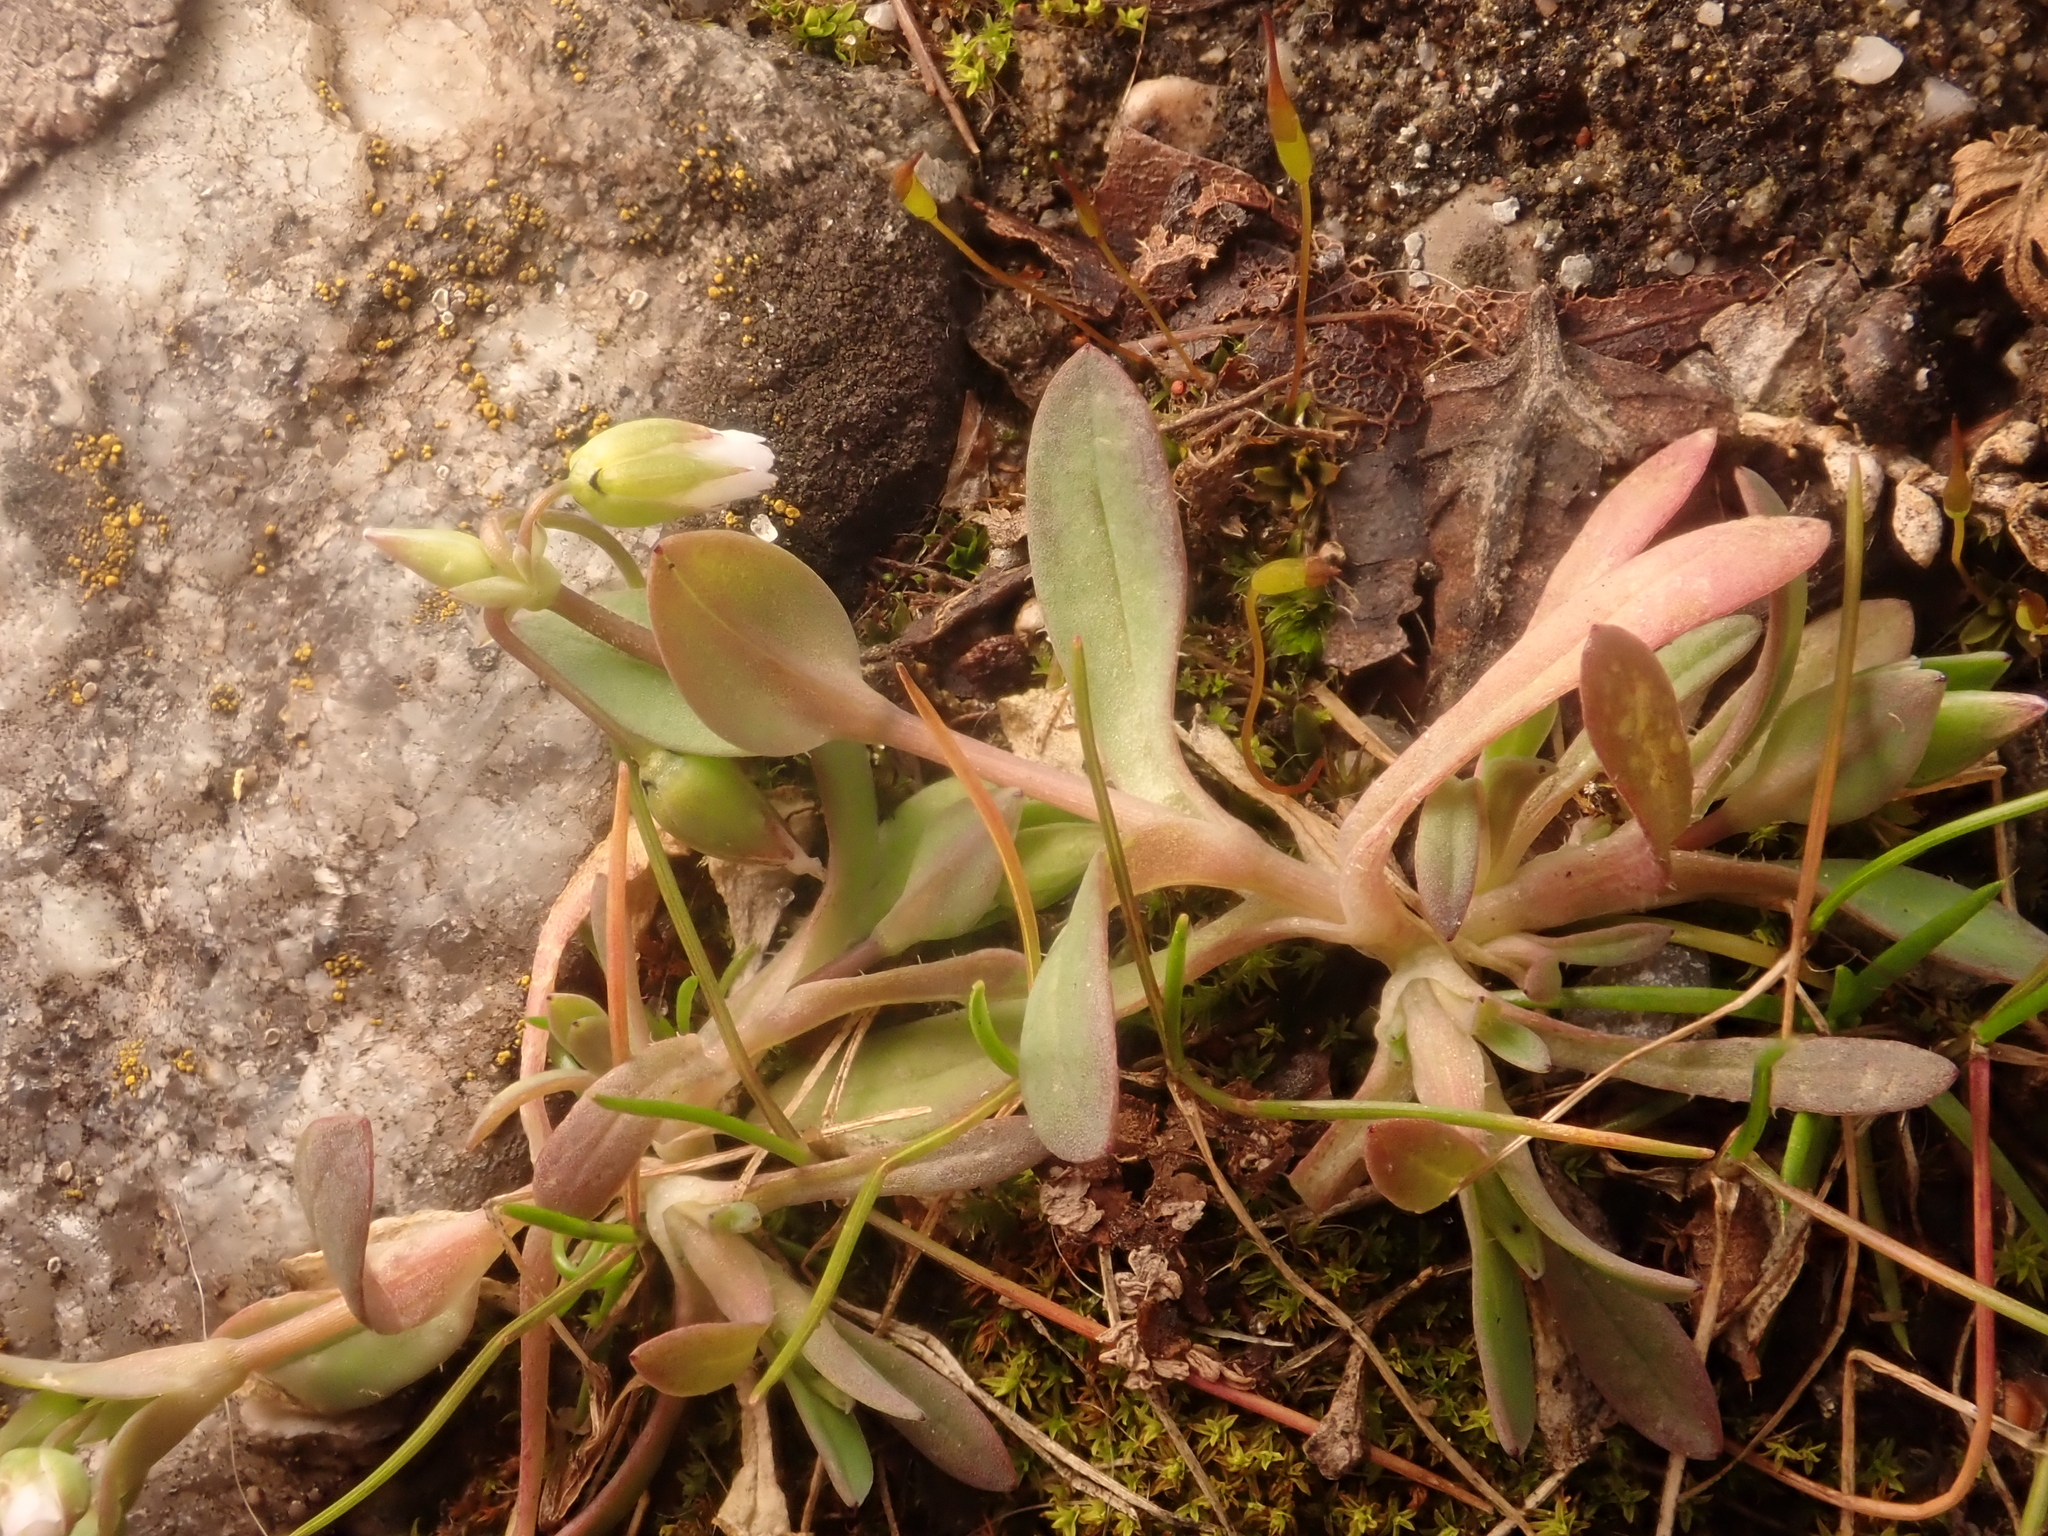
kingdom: Plantae
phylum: Tracheophyta
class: Magnoliopsida
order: Caryophyllales
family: Caryophyllaceae
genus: Holosteum
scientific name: Holosteum umbellatum
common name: Jagged chickweed
